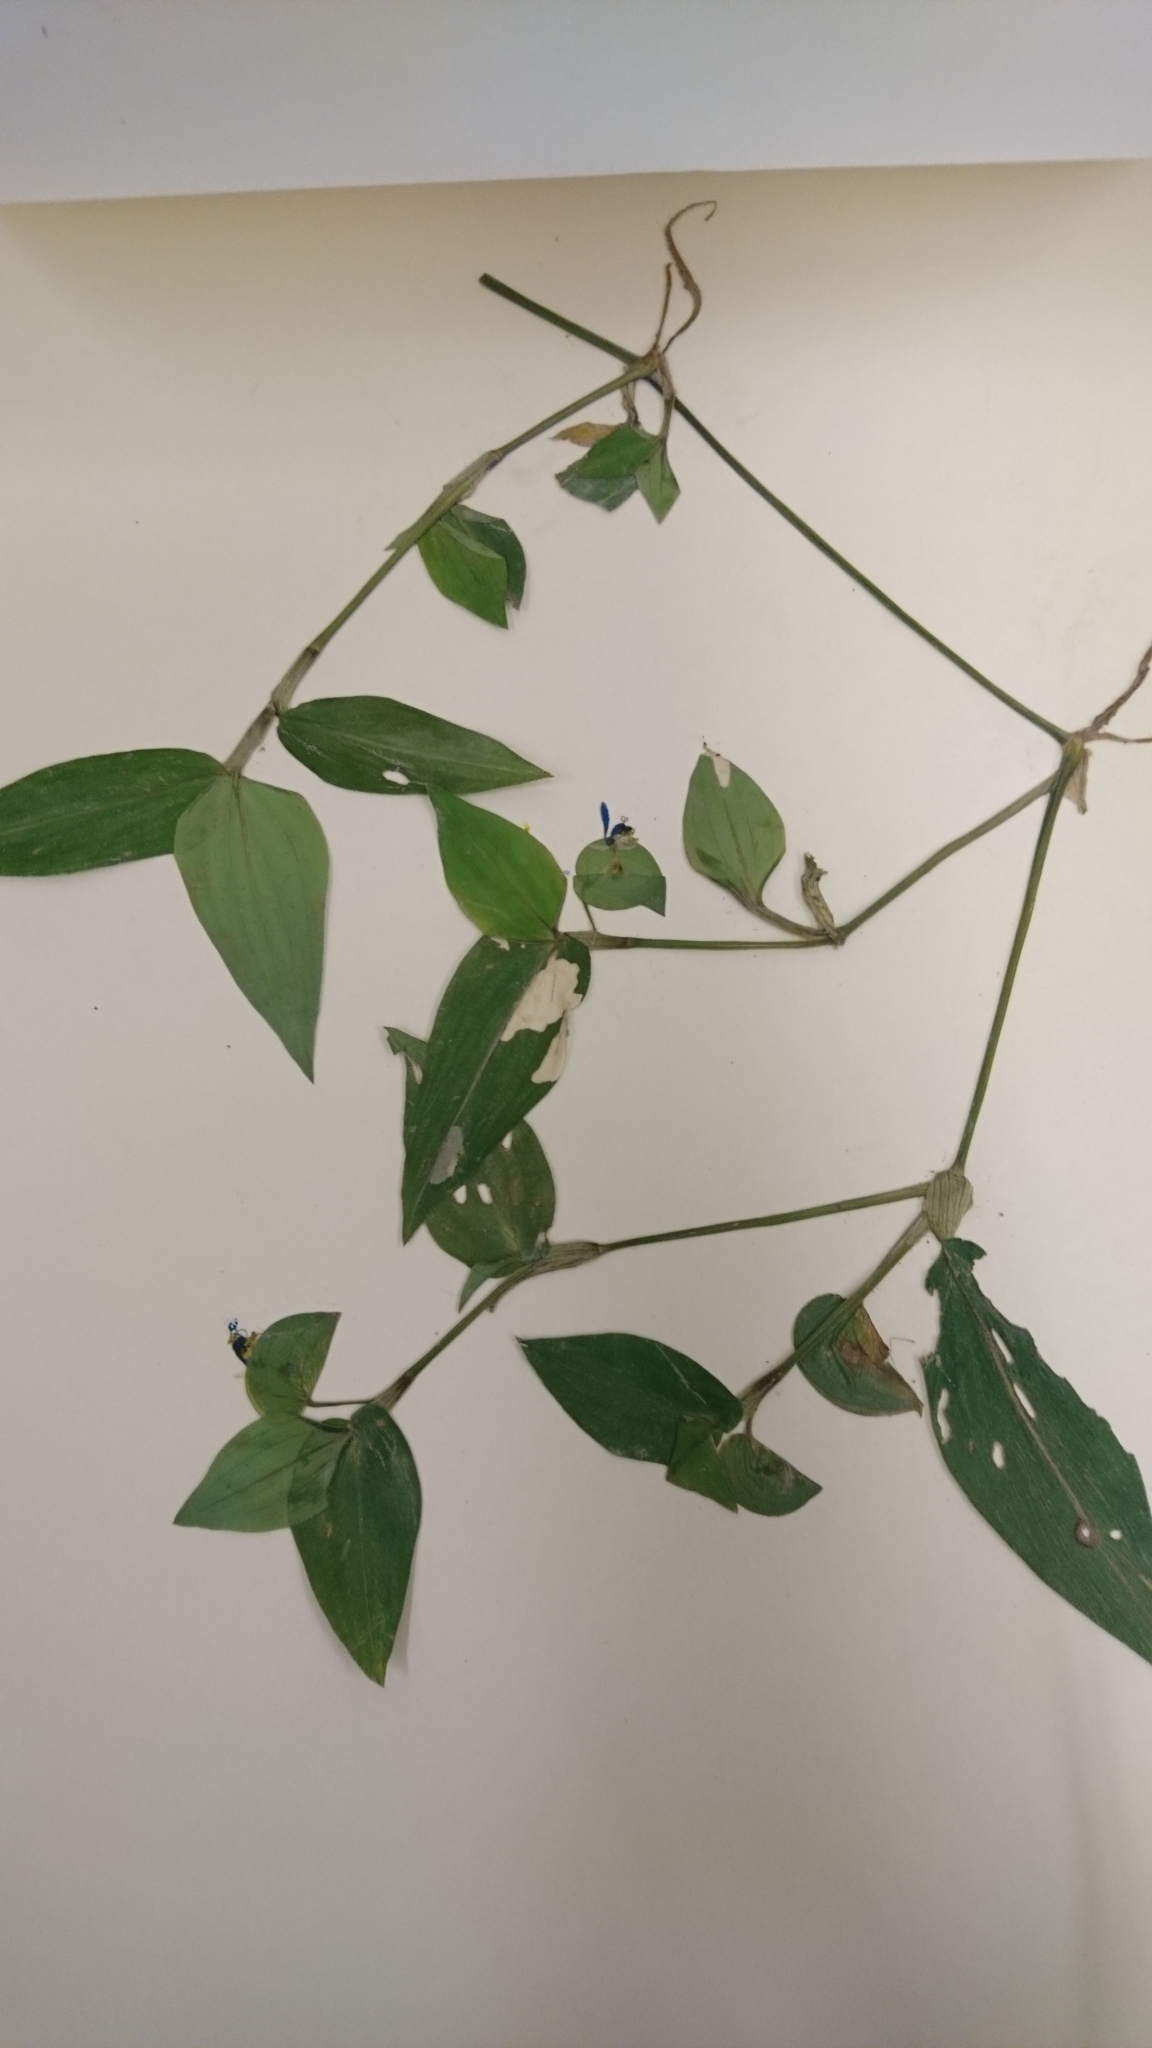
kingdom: Plantae
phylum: Tracheophyta
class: Liliopsida
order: Commelinales
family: Commelinaceae
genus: Commelina
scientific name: Commelina communis
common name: Asiatic dayflower
